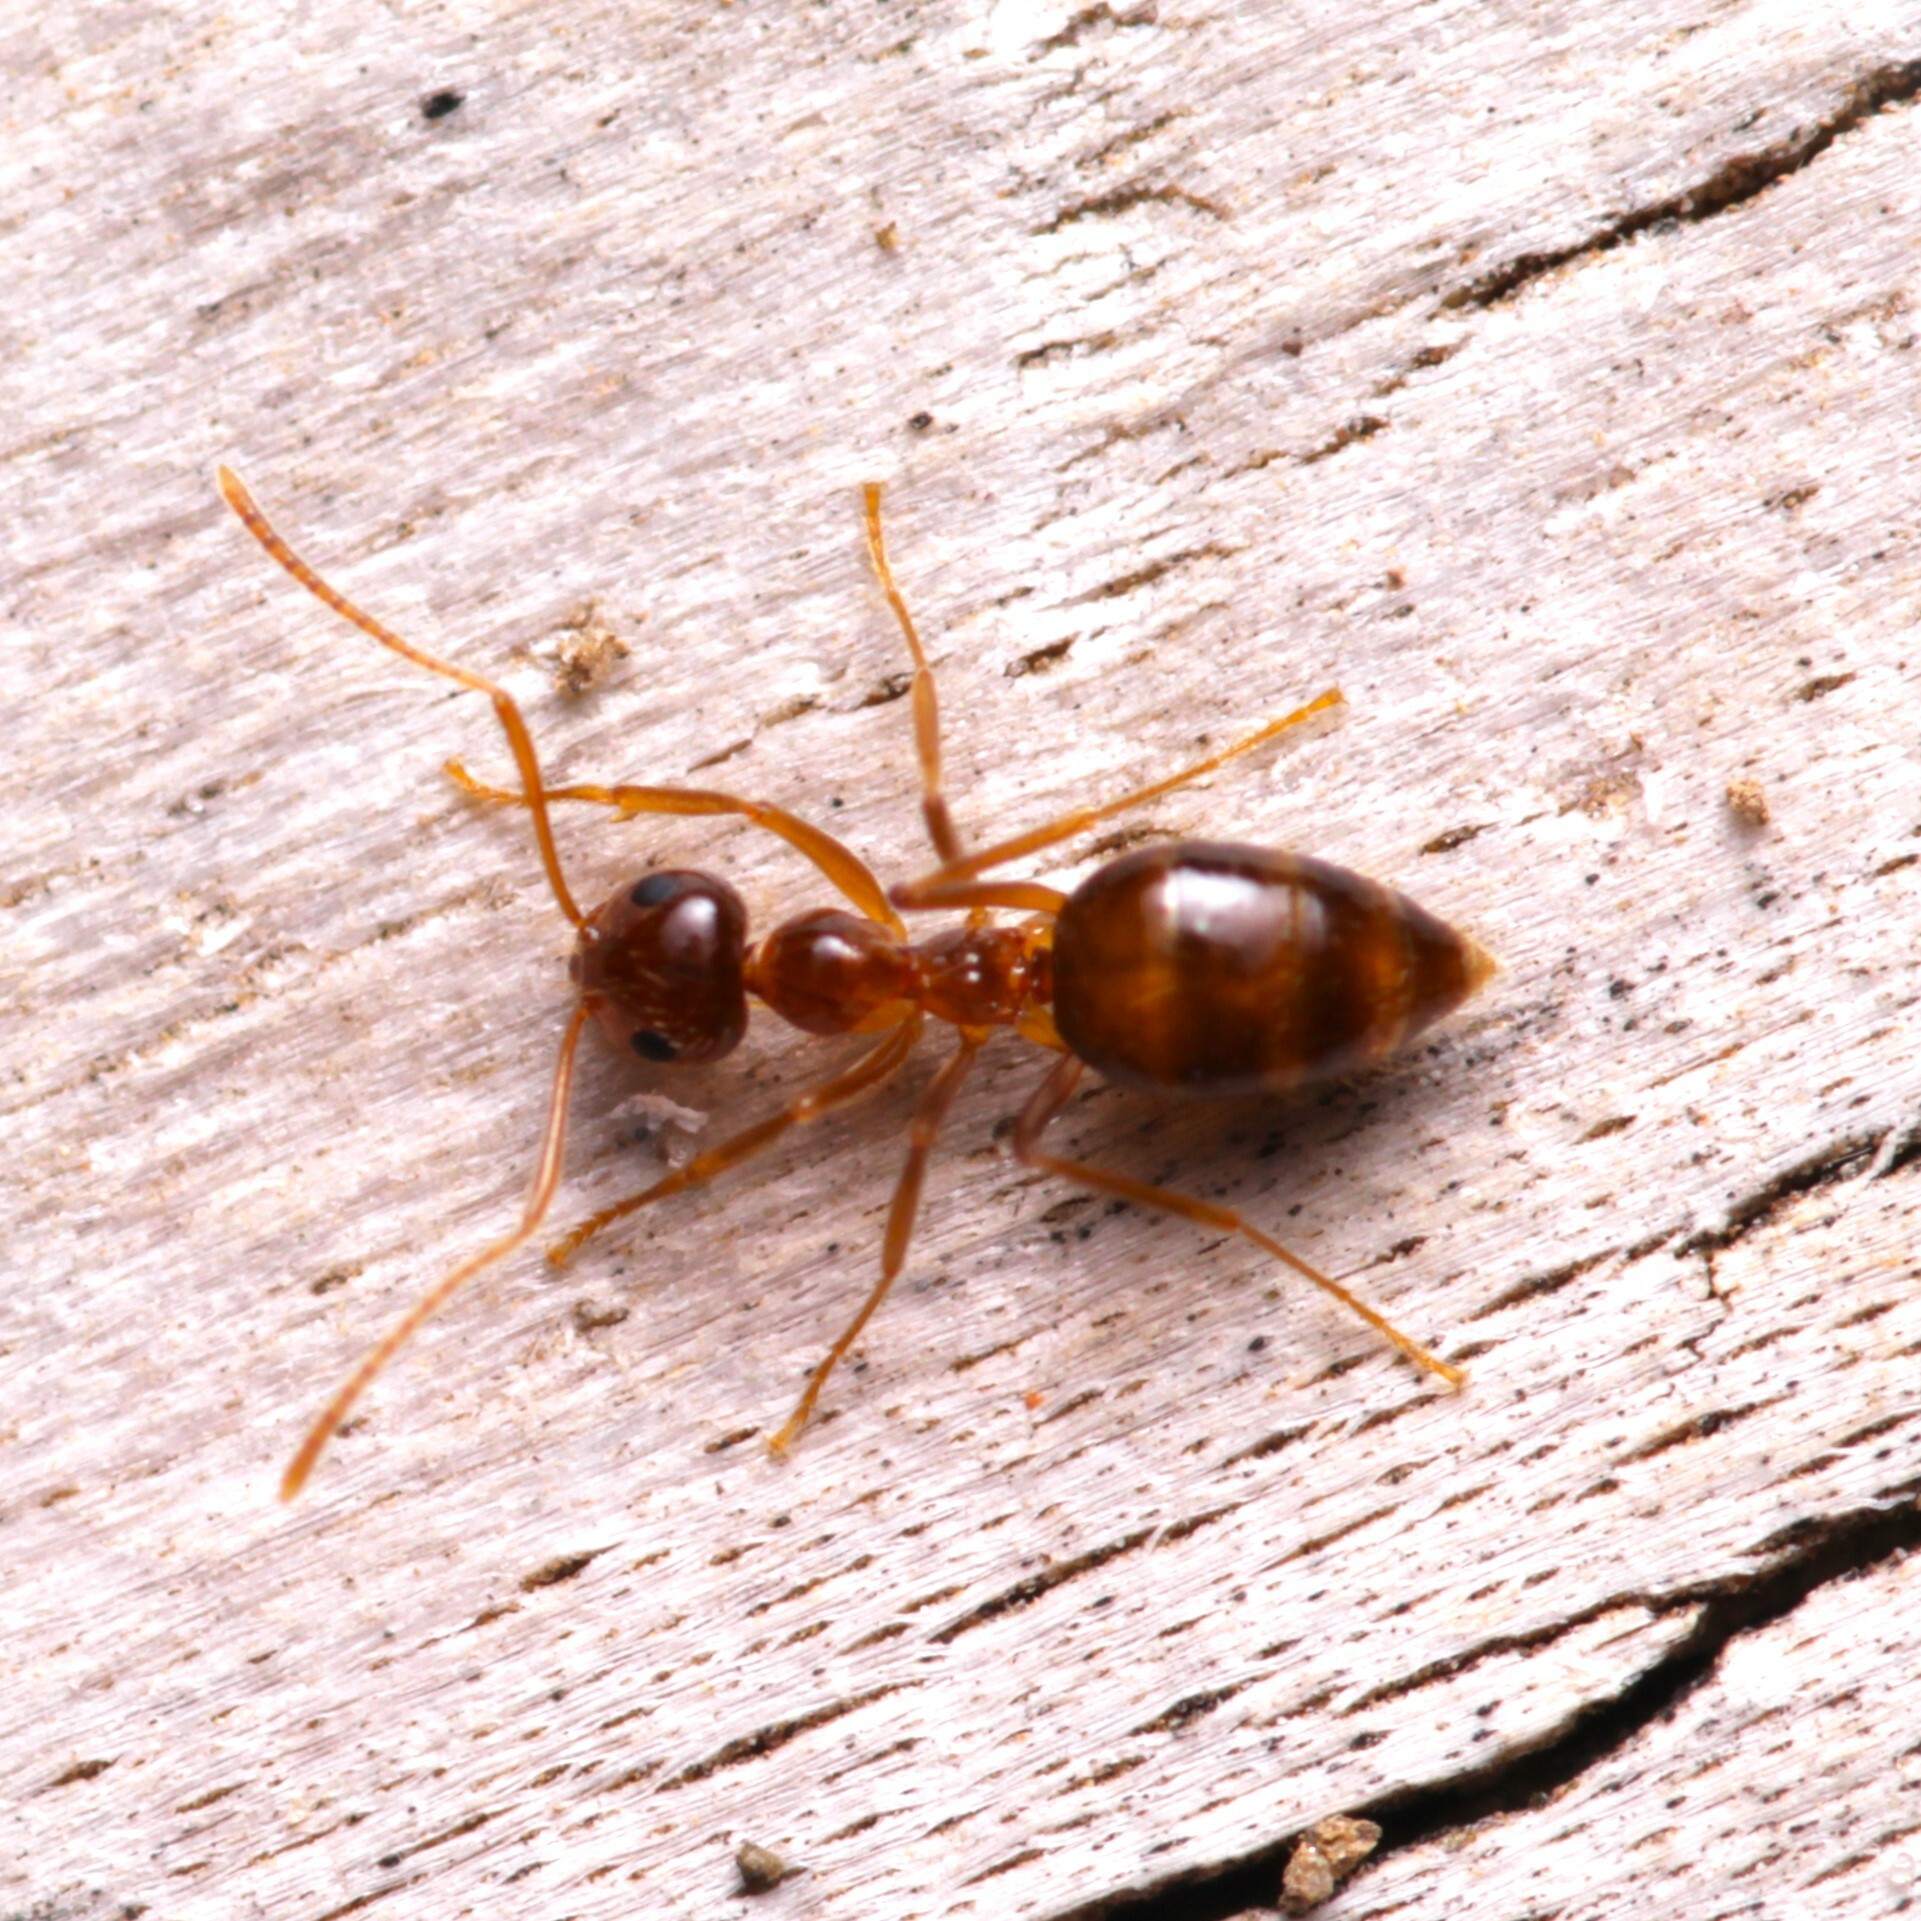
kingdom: Animalia
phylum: Arthropoda
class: Insecta
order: Hymenoptera
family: Formicidae
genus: Prenolepis
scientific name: Prenolepis imparis
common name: Small honey ant
